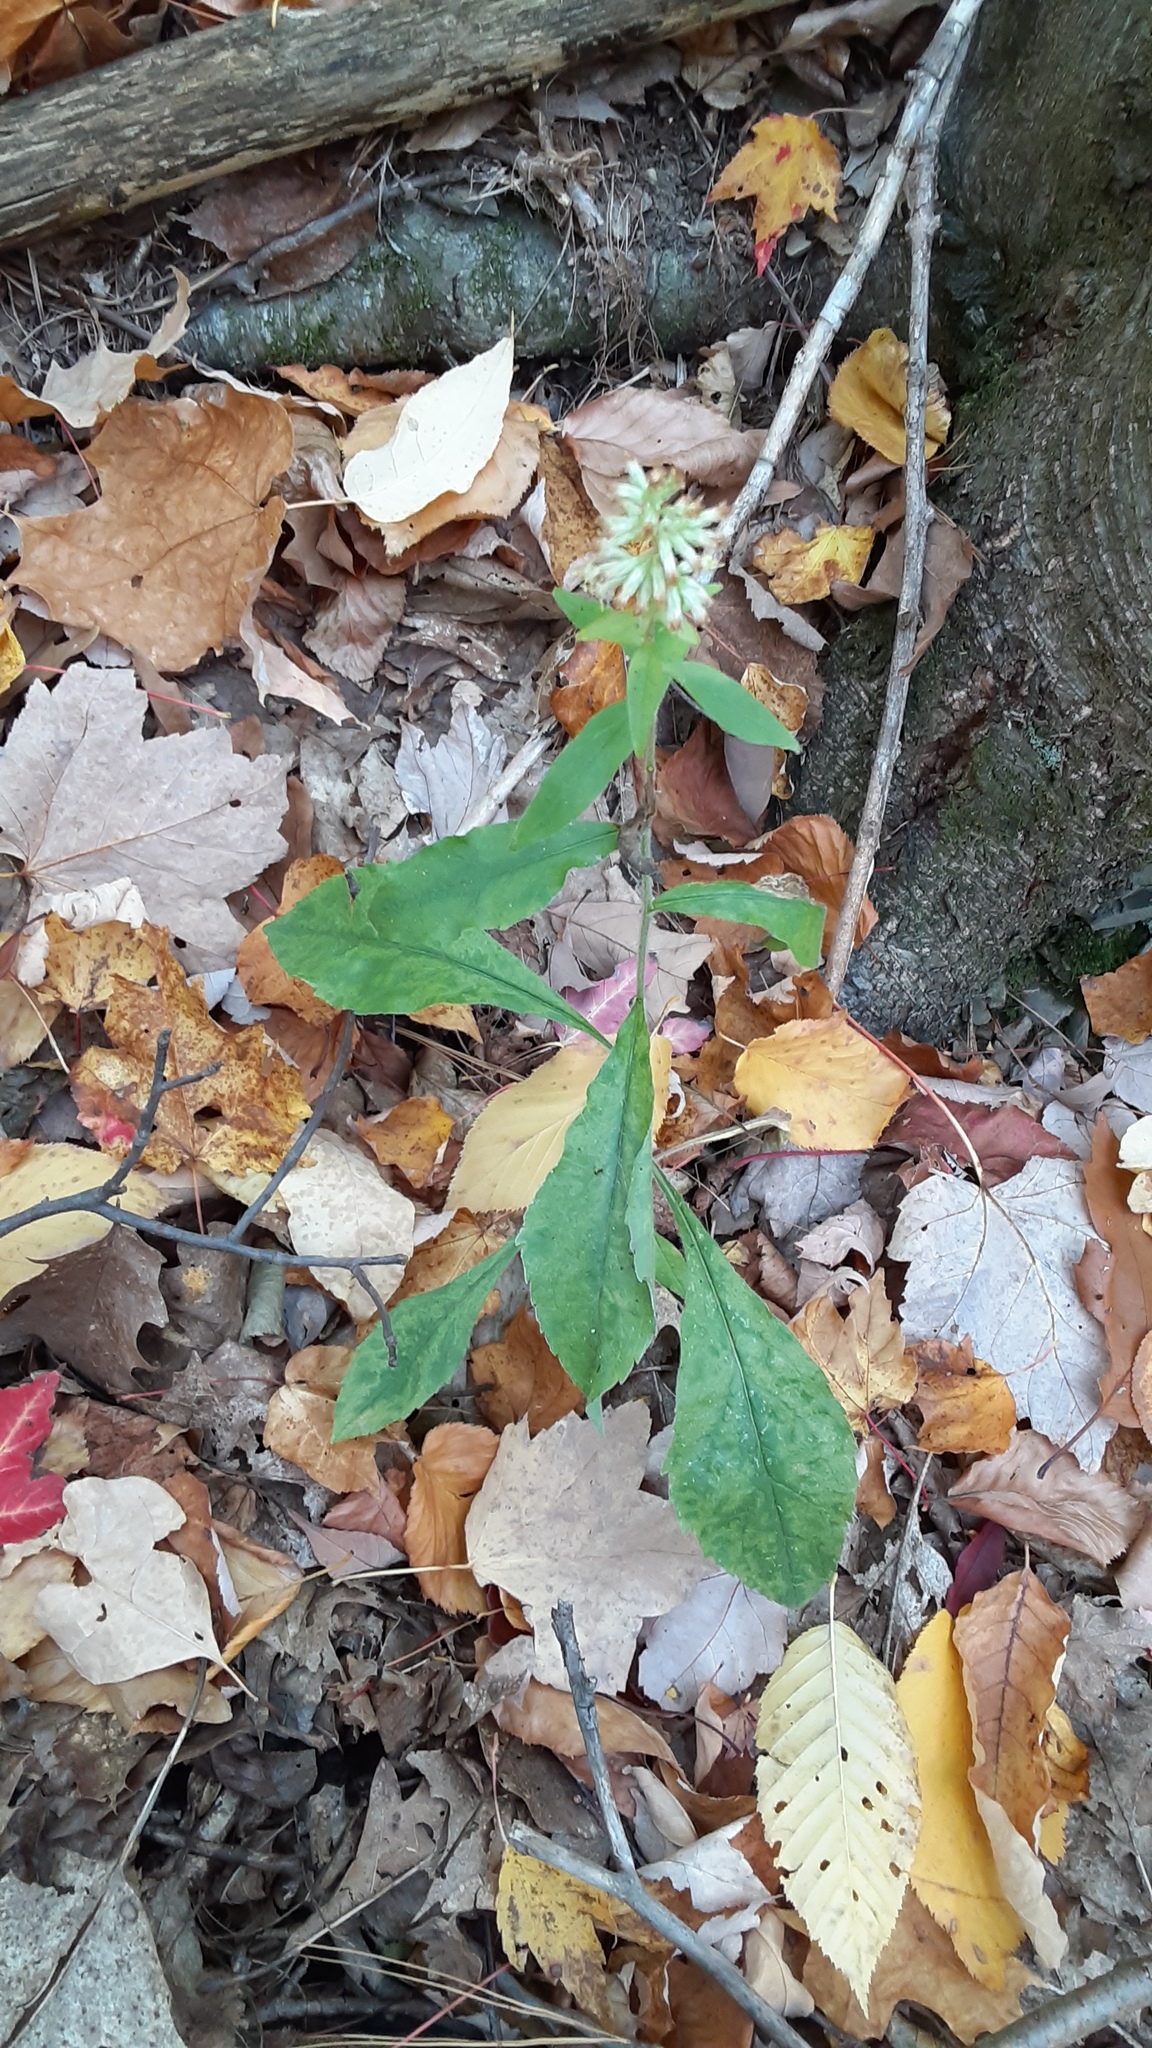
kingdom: Plantae
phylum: Tracheophyta
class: Magnoliopsida
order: Asterales
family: Asteraceae
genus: Solidago
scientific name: Solidago bicolor
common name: Silverrod
